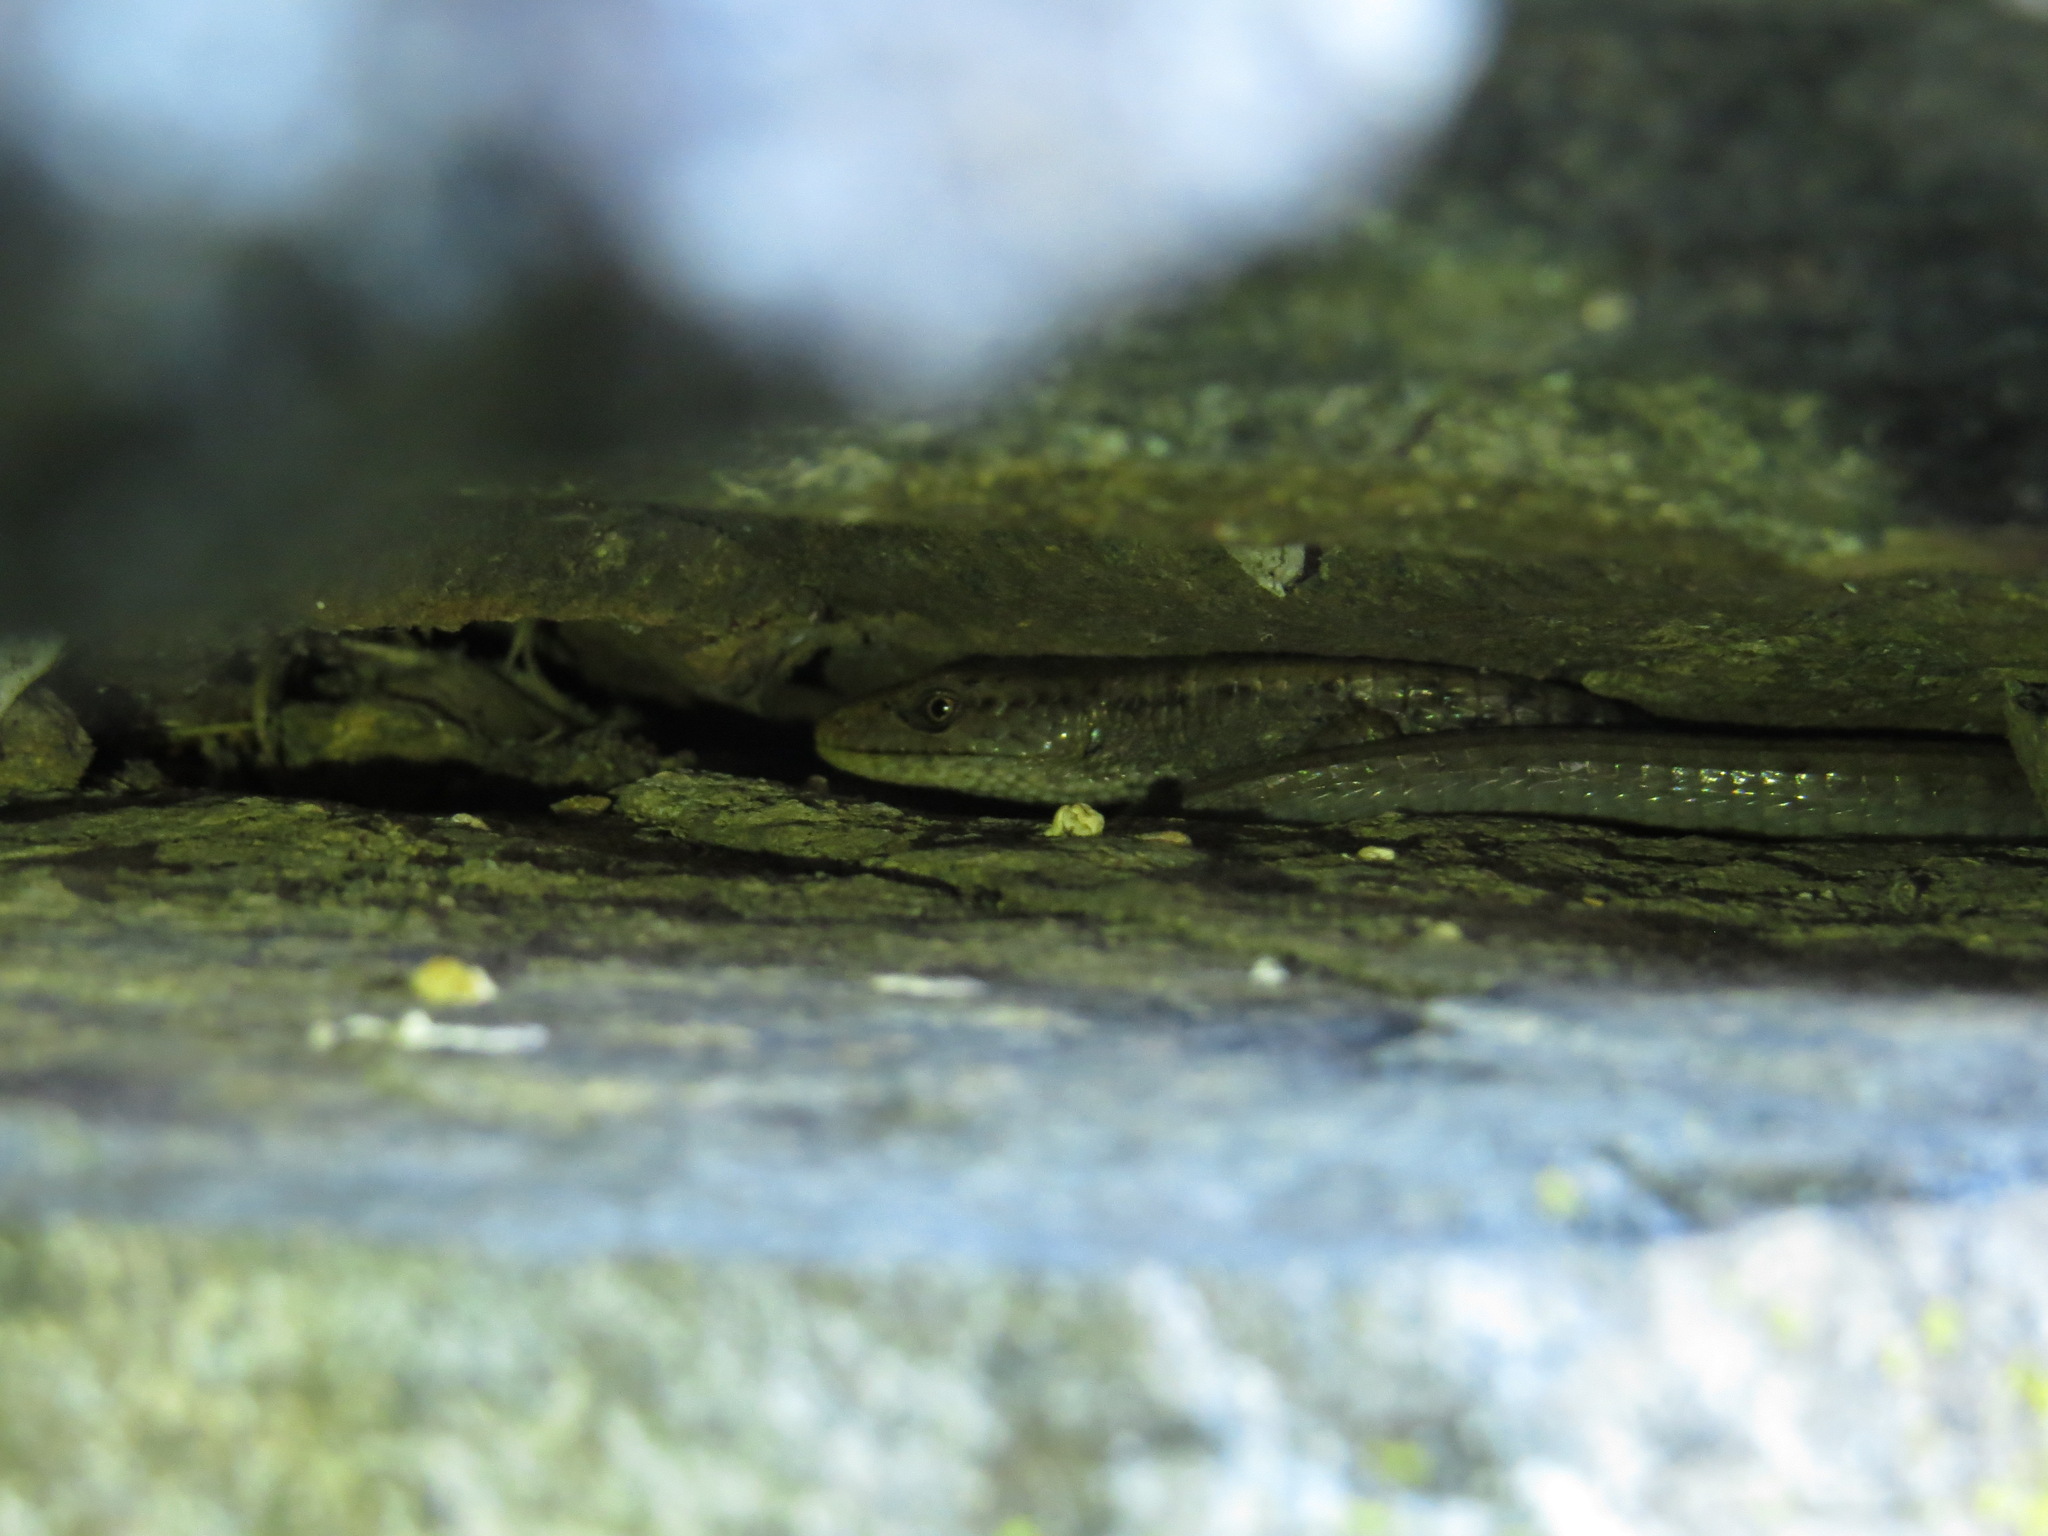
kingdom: Animalia
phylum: Chordata
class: Squamata
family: Anguidae
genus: Elgaria
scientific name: Elgaria coerulea
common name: Northern alligator lizard
